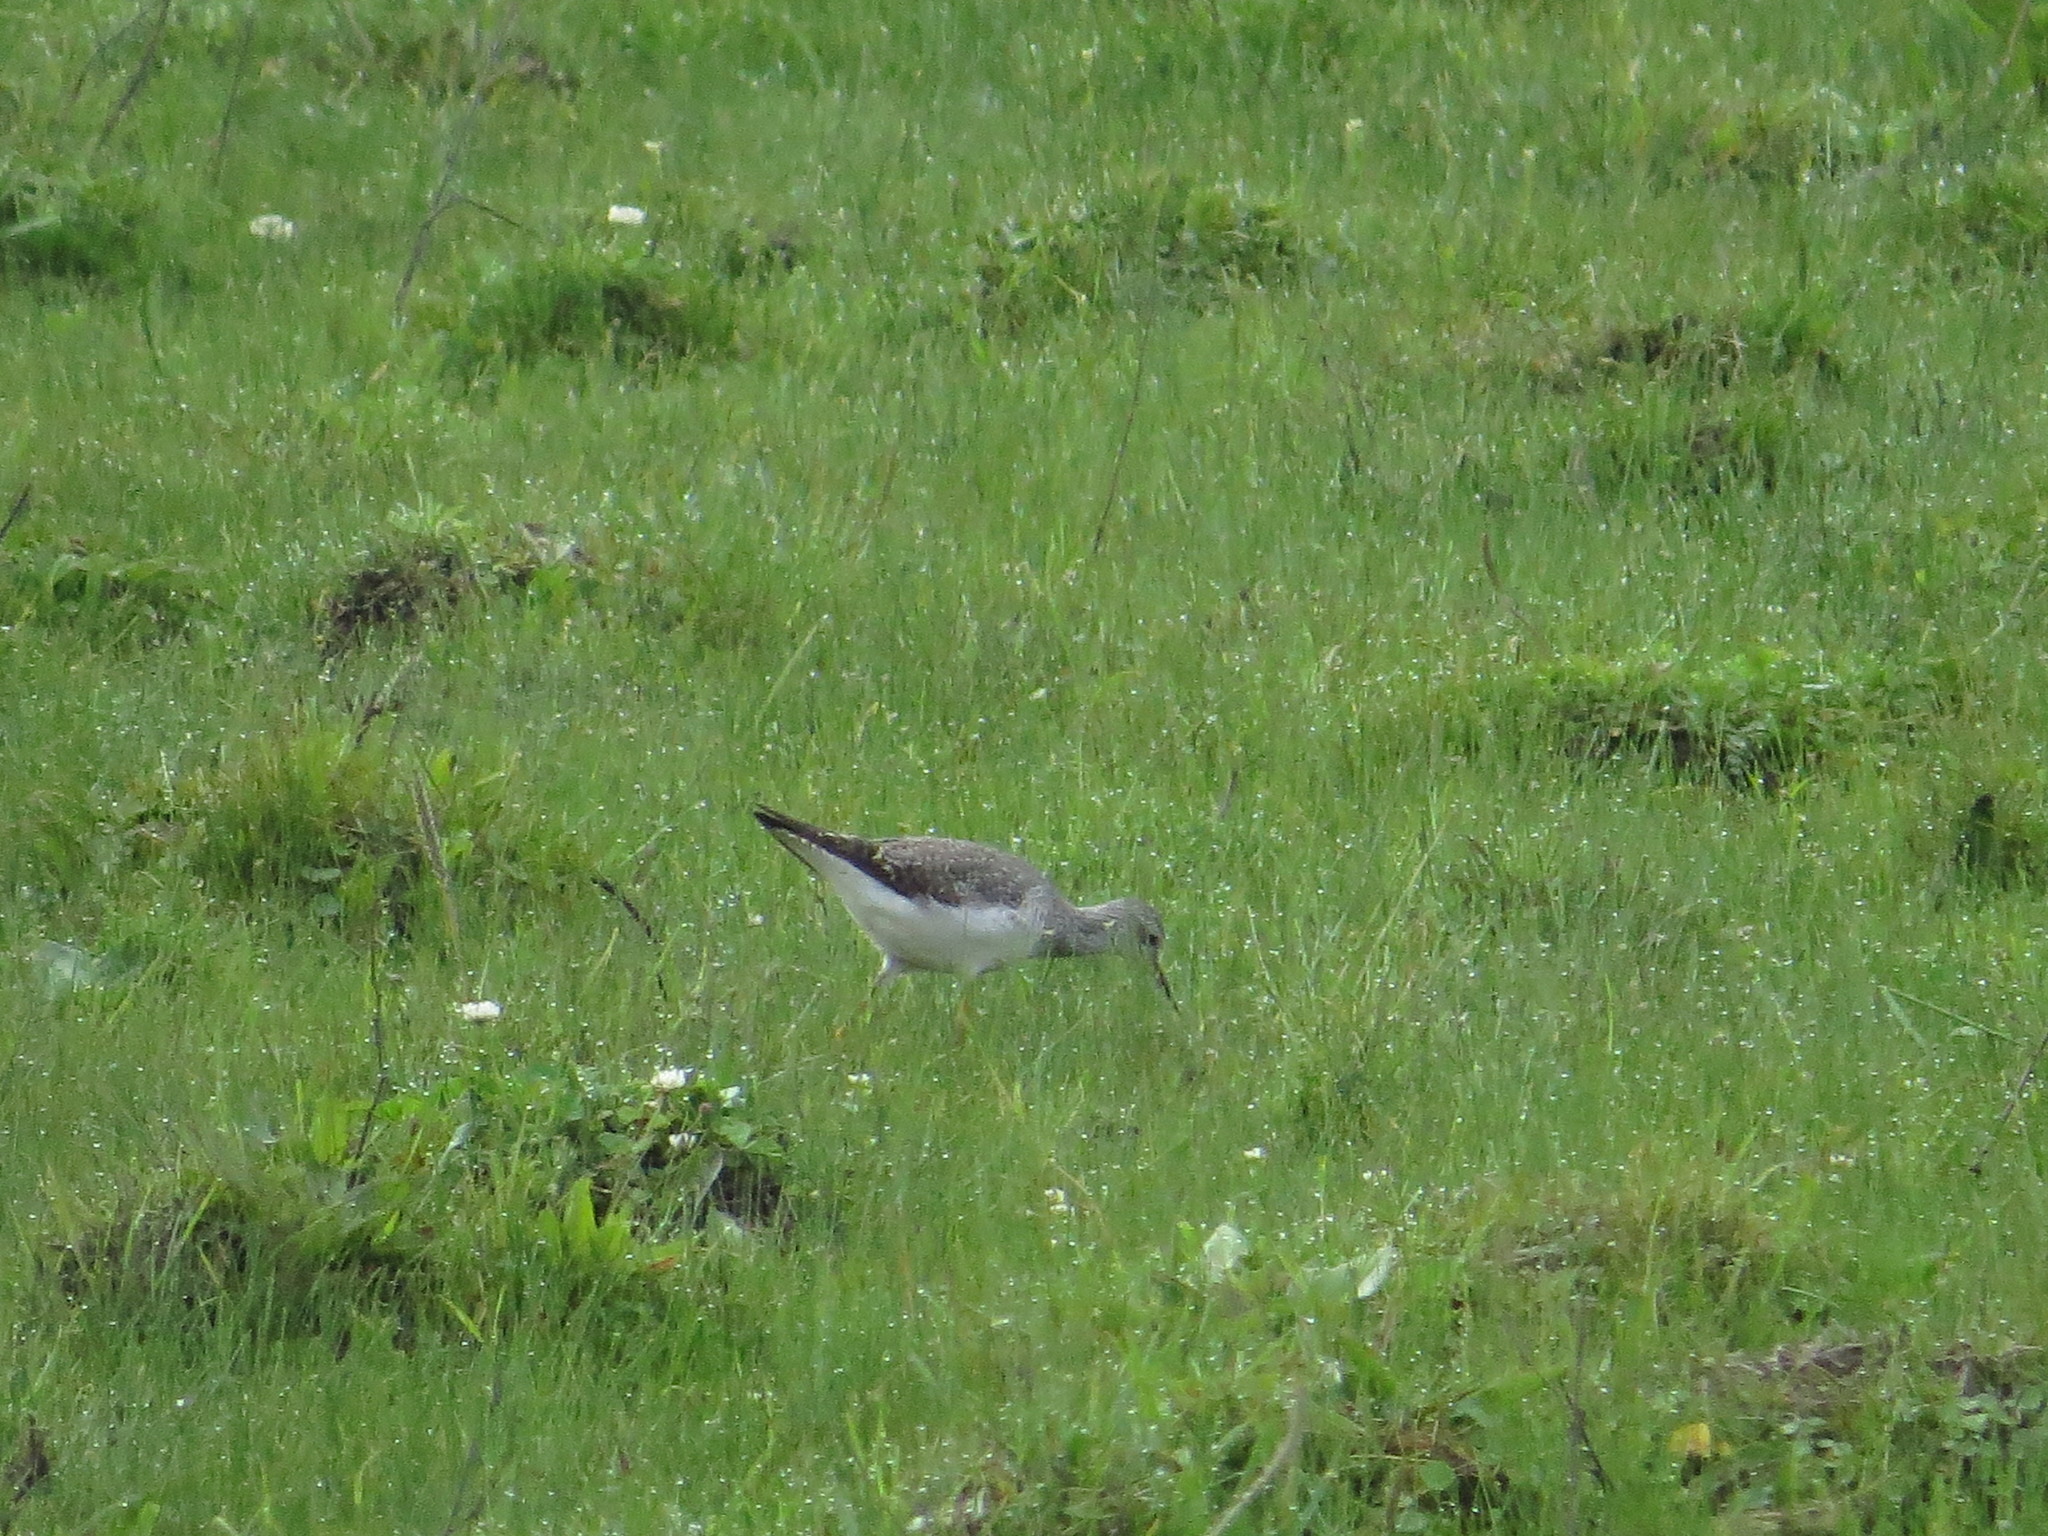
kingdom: Animalia
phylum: Chordata
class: Aves
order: Charadriiformes
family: Scolopacidae
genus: Tringa
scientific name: Tringa flavipes
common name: Lesser yellowlegs
